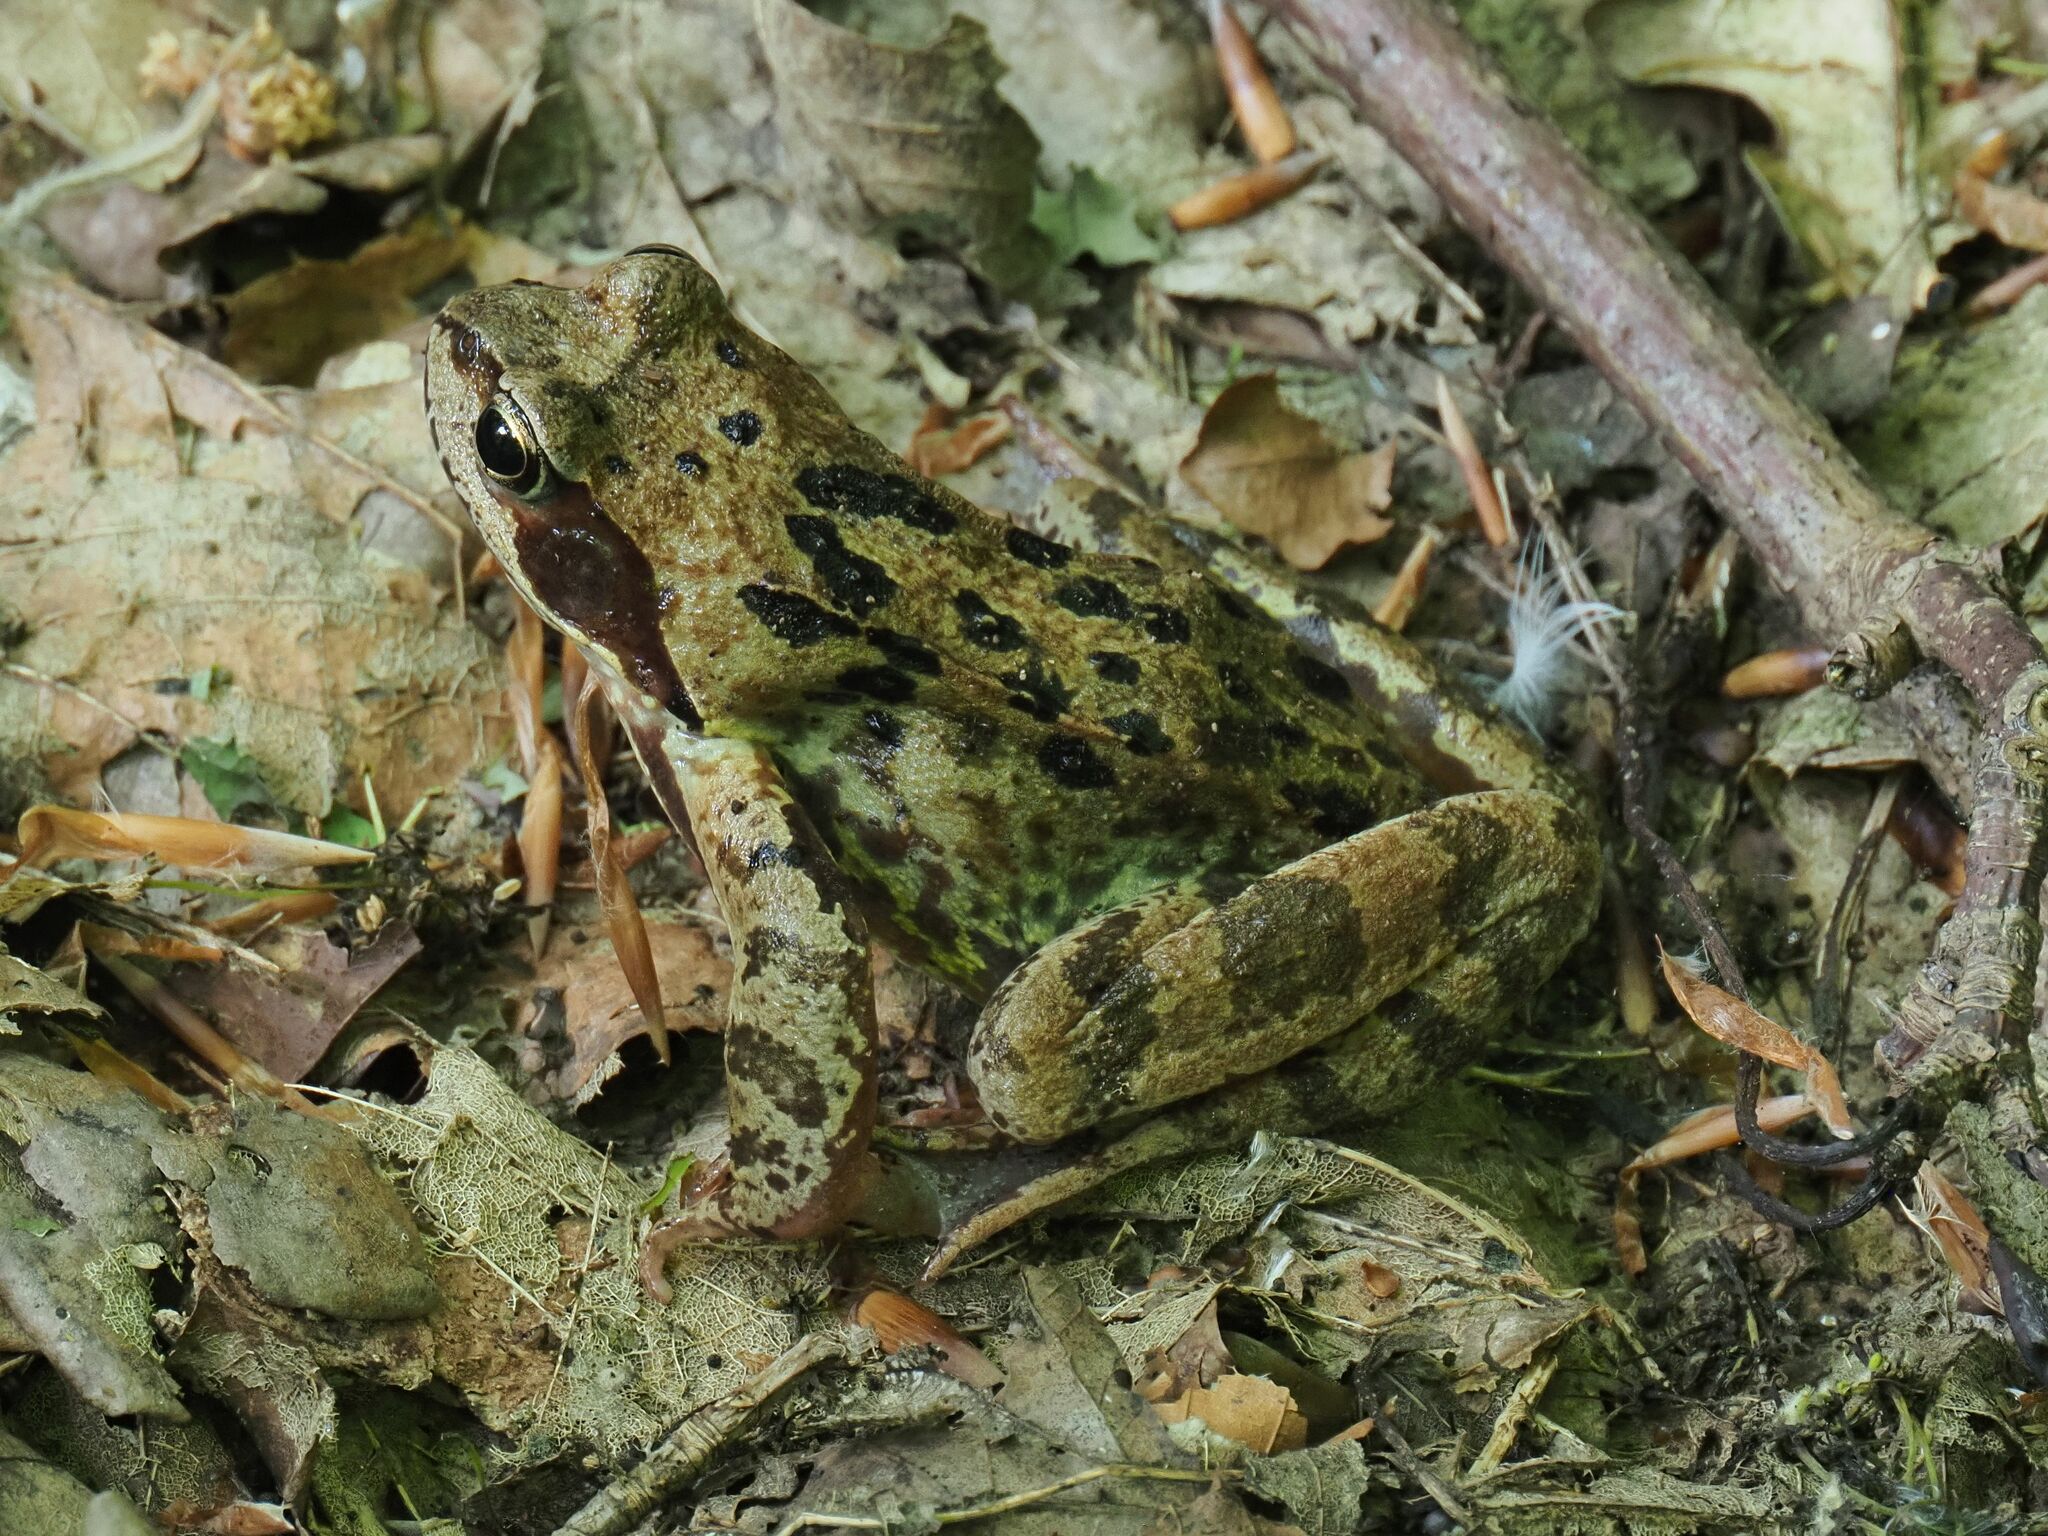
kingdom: Animalia
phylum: Chordata
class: Amphibia
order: Anura
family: Ranidae
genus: Rana
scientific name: Rana temporaria
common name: Common frog
